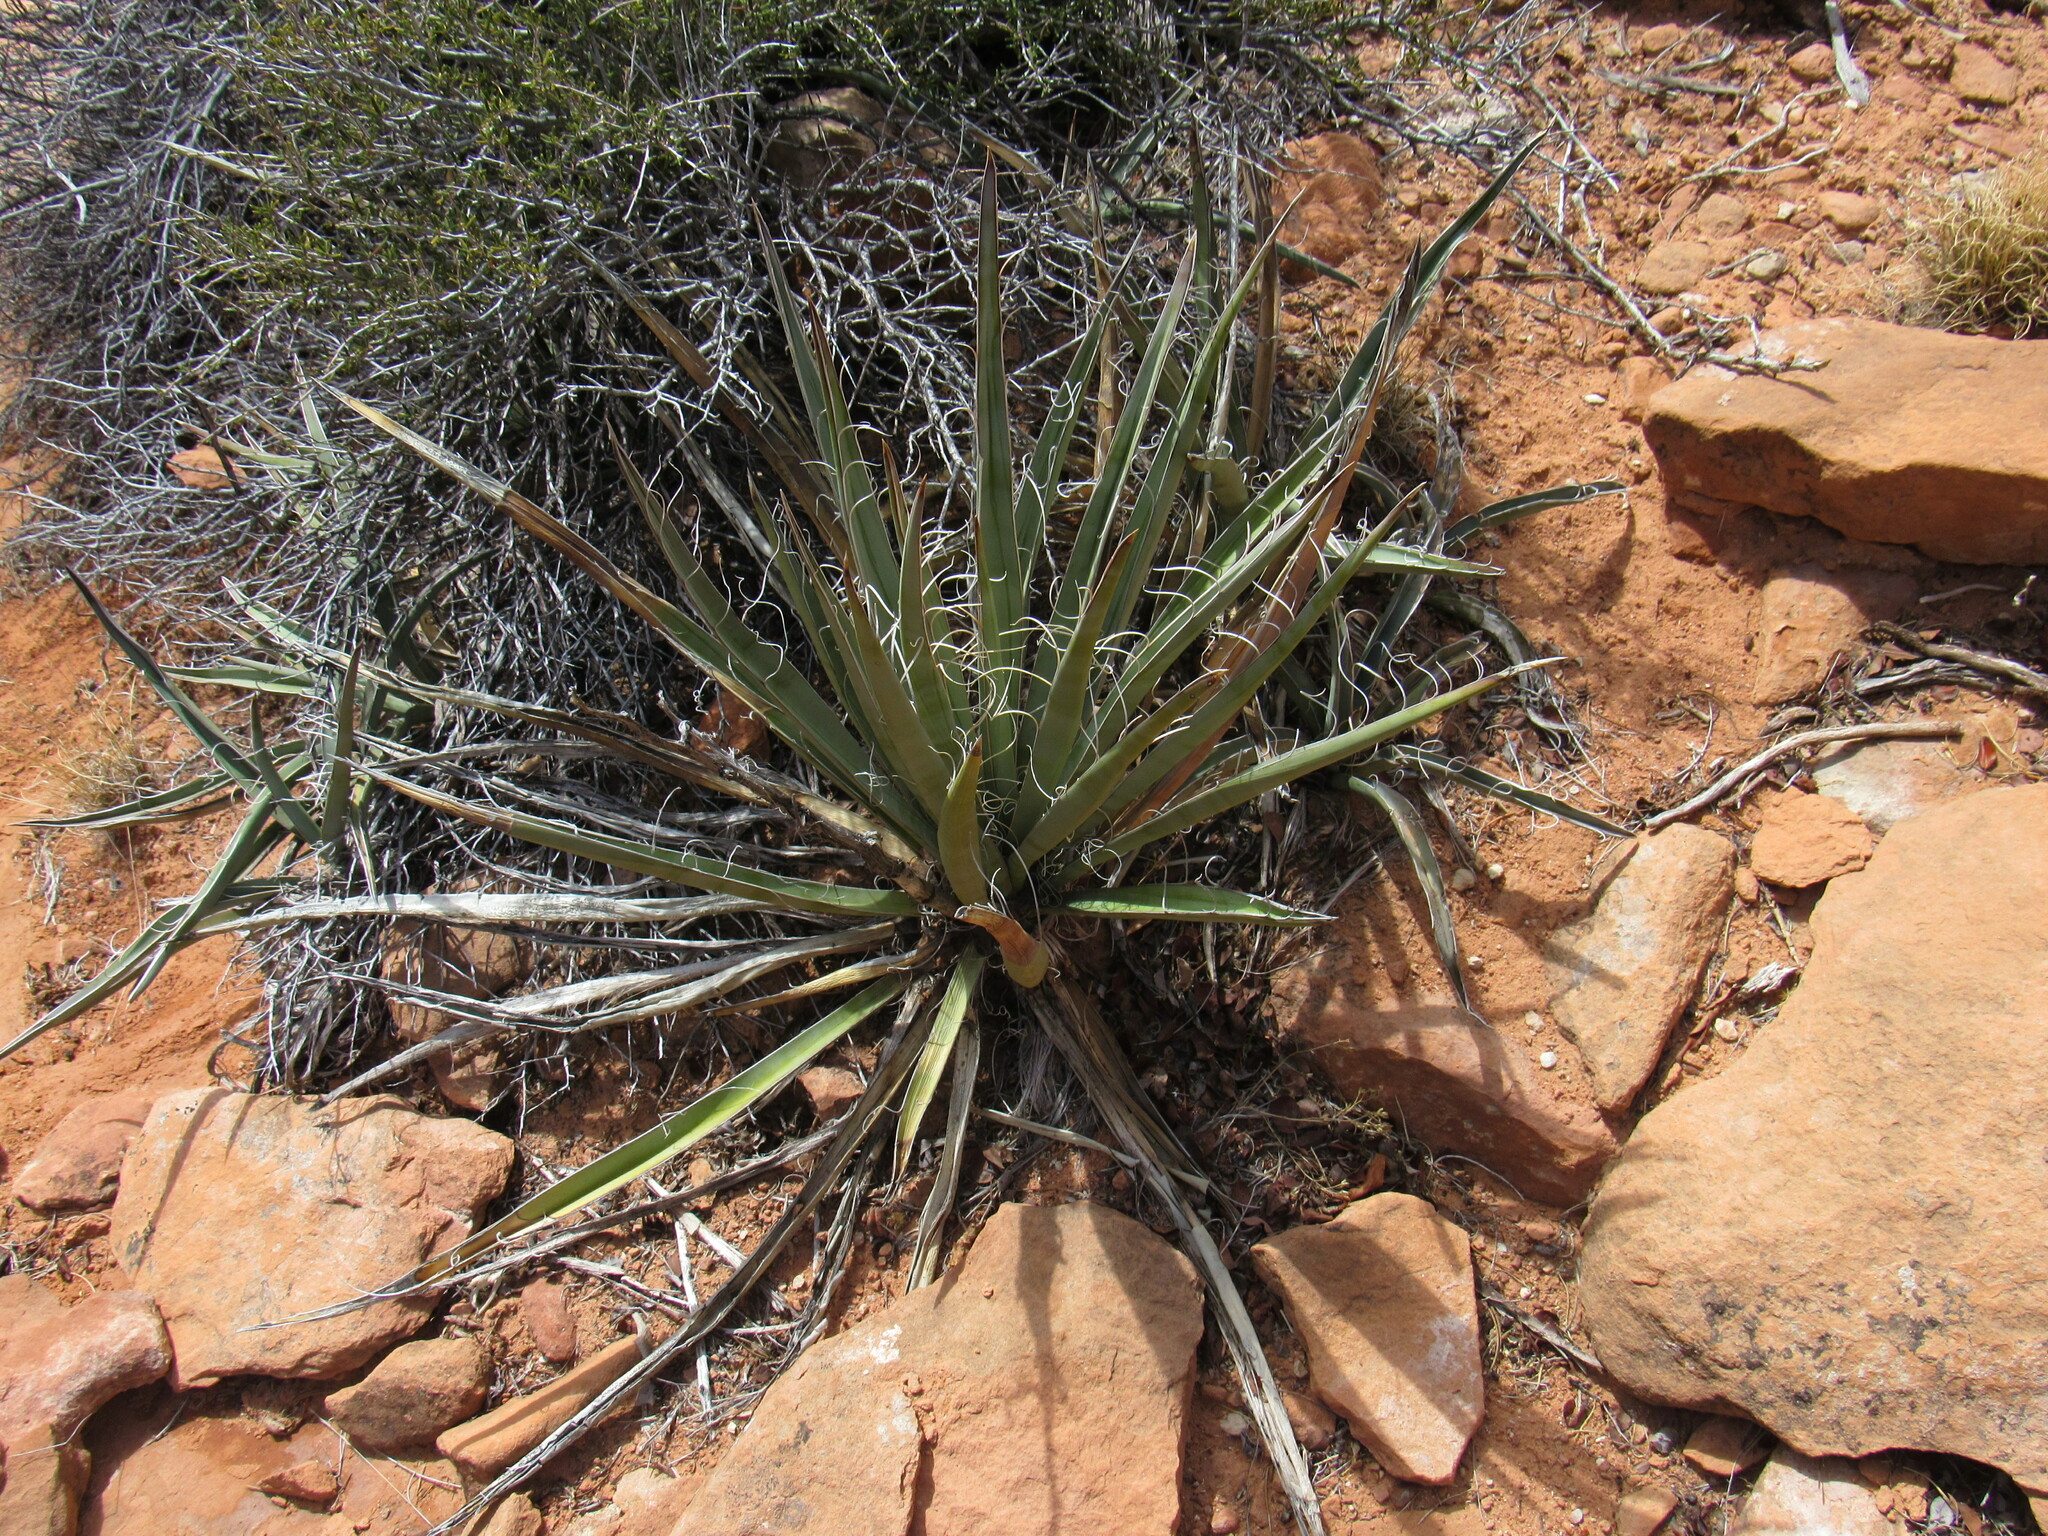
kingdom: Plantae
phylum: Tracheophyta
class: Liliopsida
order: Asparagales
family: Asparagaceae
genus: Yucca
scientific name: Yucca baccata
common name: Banana yucca
